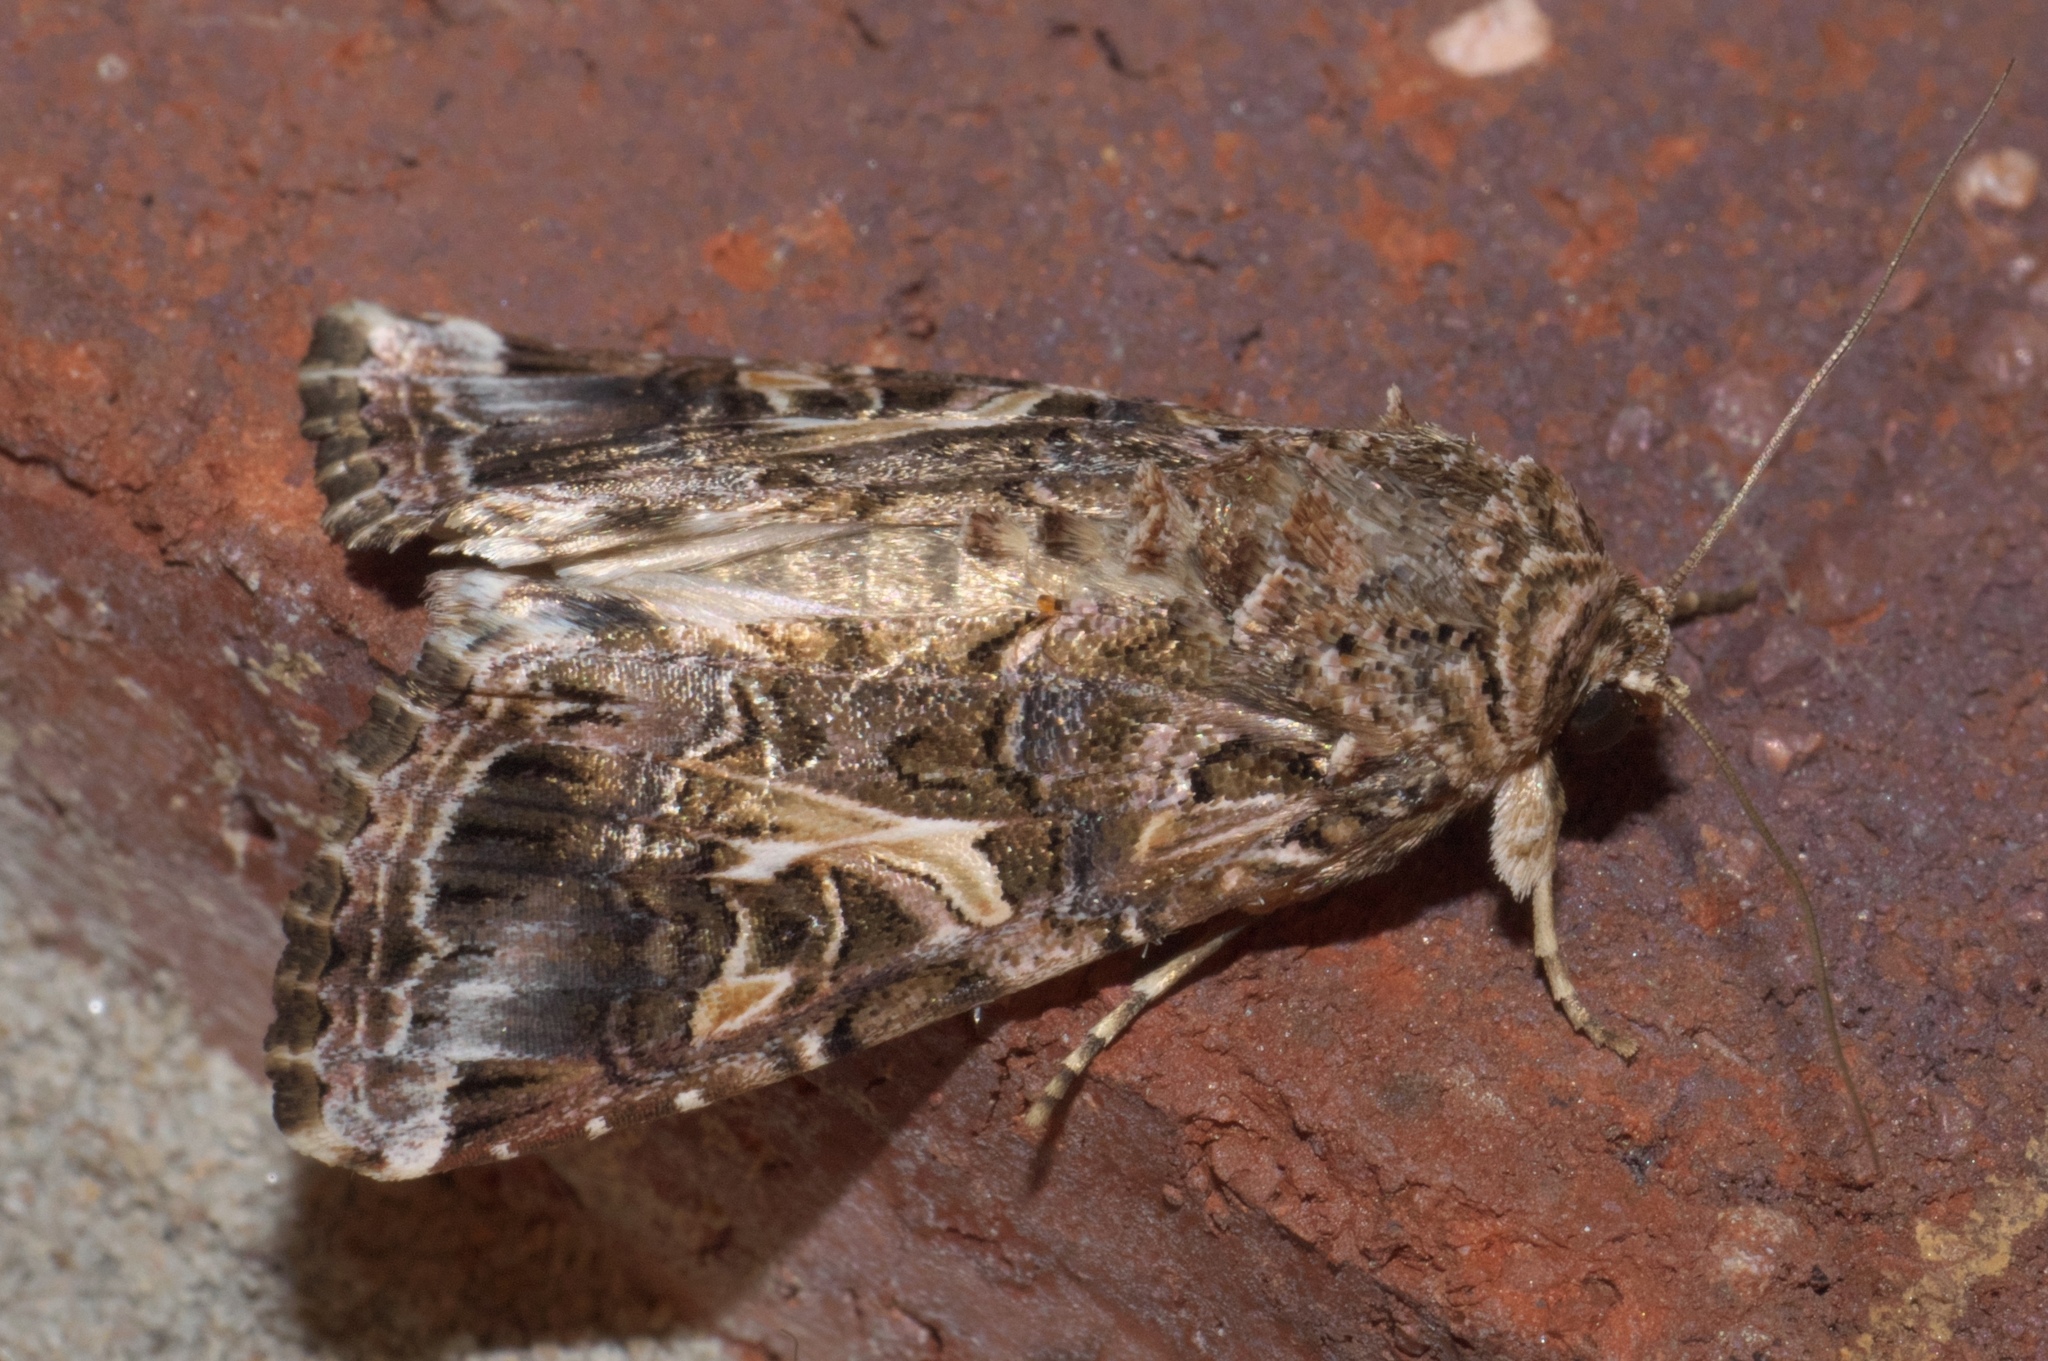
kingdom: Animalia
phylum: Arthropoda
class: Insecta
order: Lepidoptera
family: Noctuidae
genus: Spodoptera
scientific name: Spodoptera ornithogalli
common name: Yellow-striped armyworm
